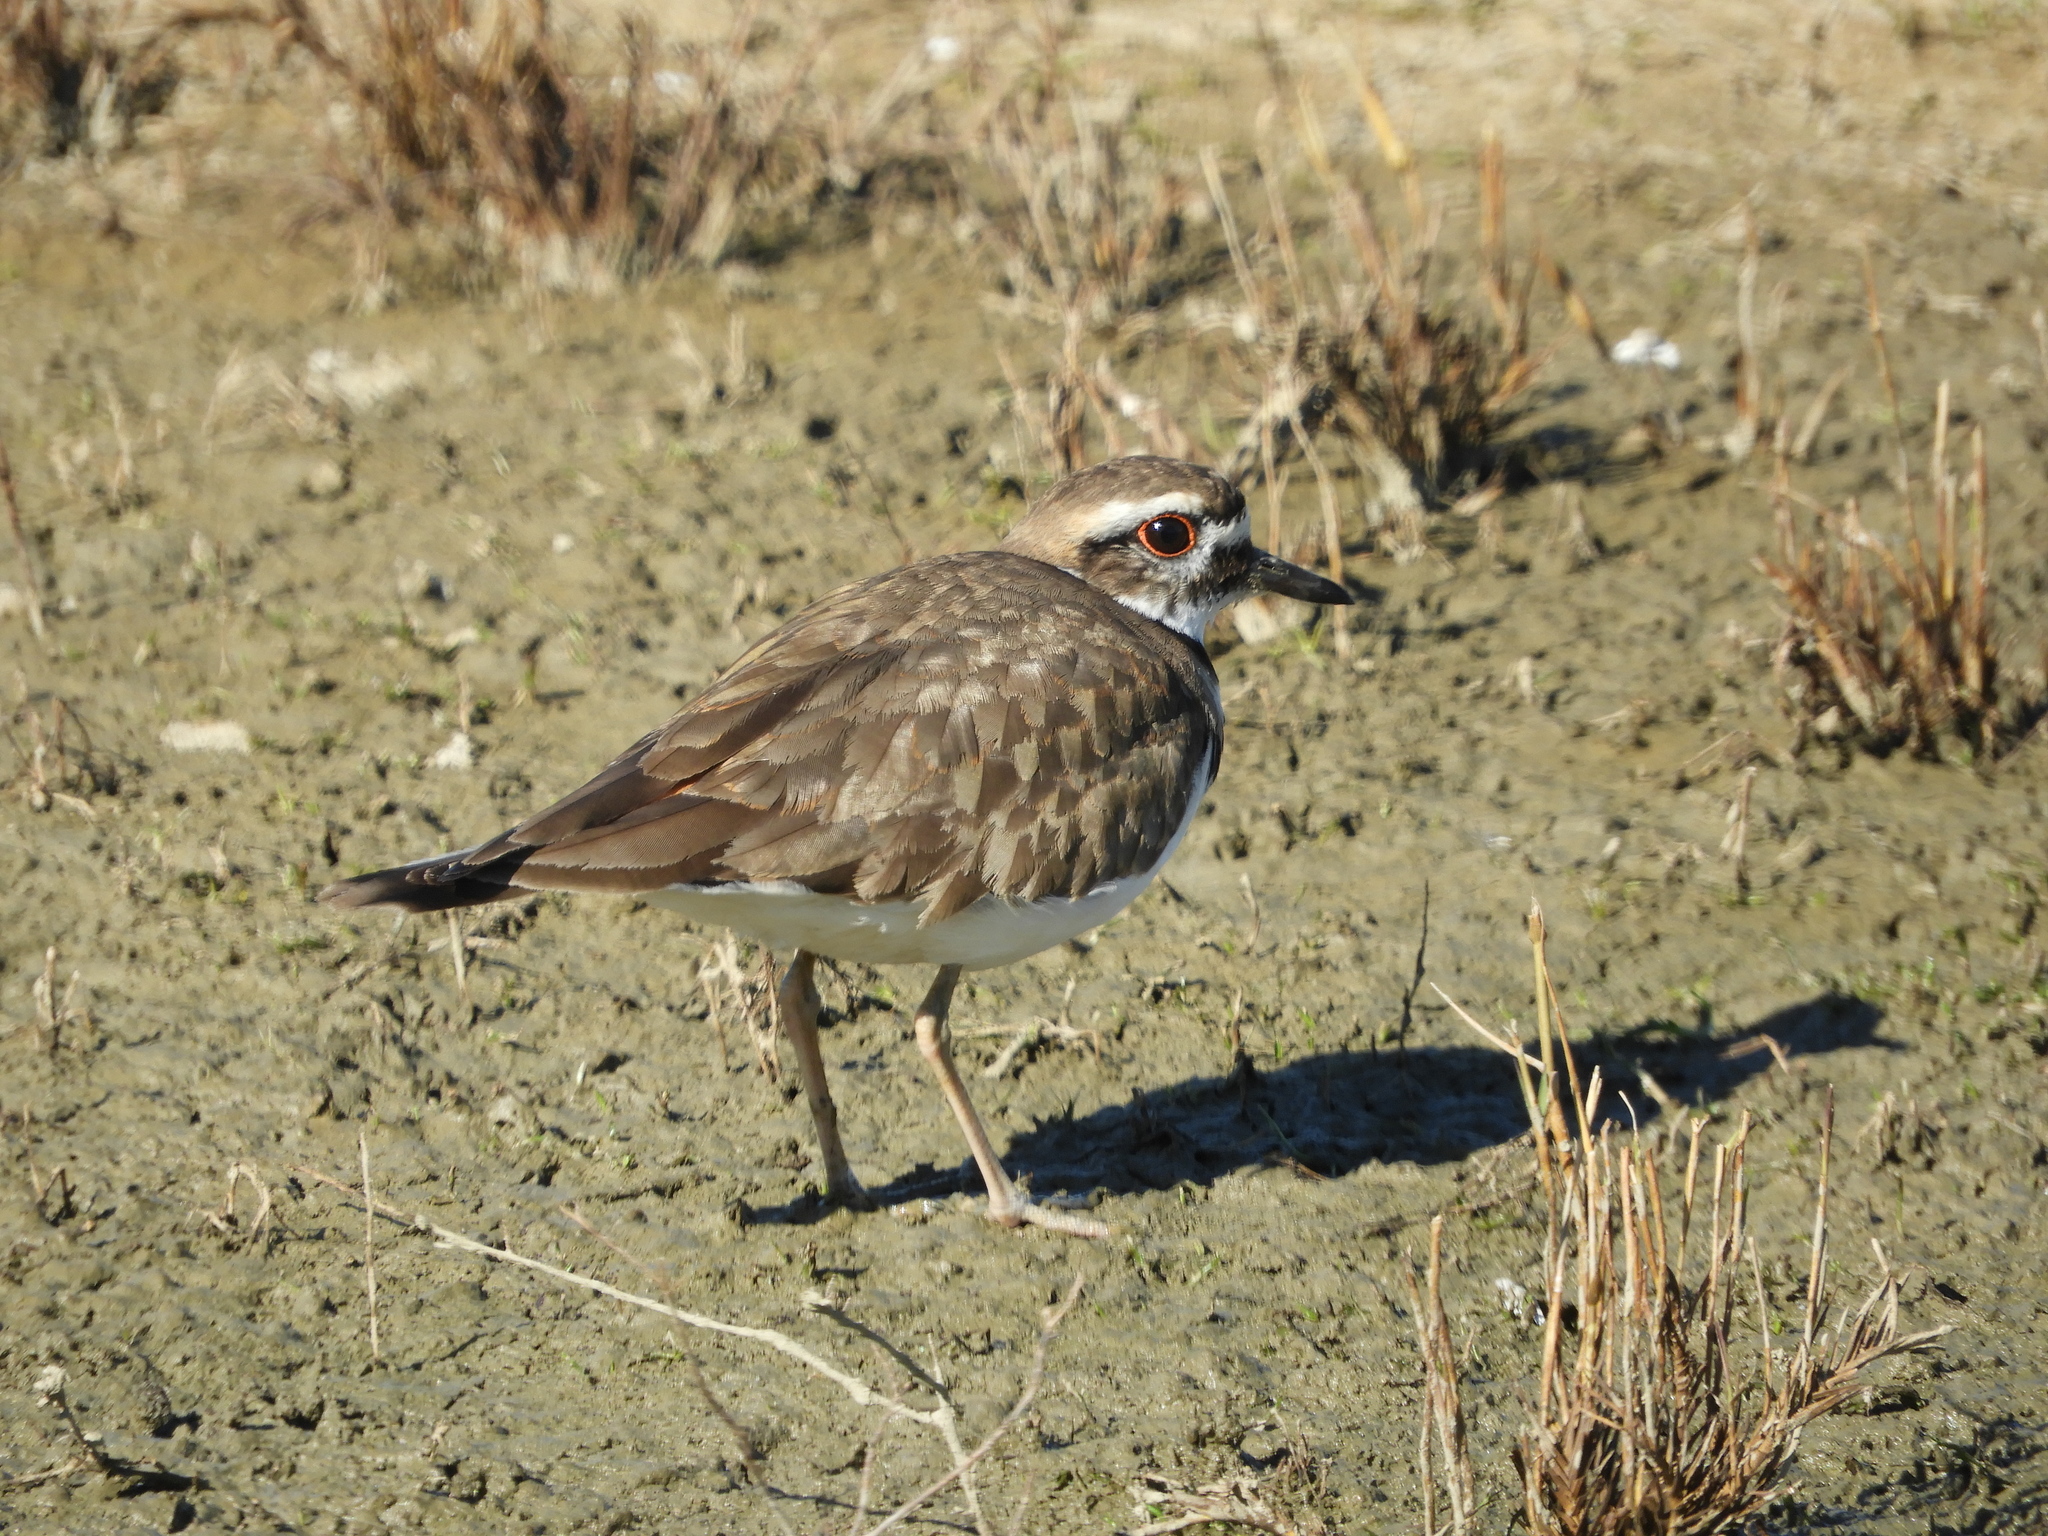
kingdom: Animalia
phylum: Chordata
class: Aves
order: Charadriiformes
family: Charadriidae
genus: Charadrius
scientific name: Charadrius vociferus
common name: Killdeer
